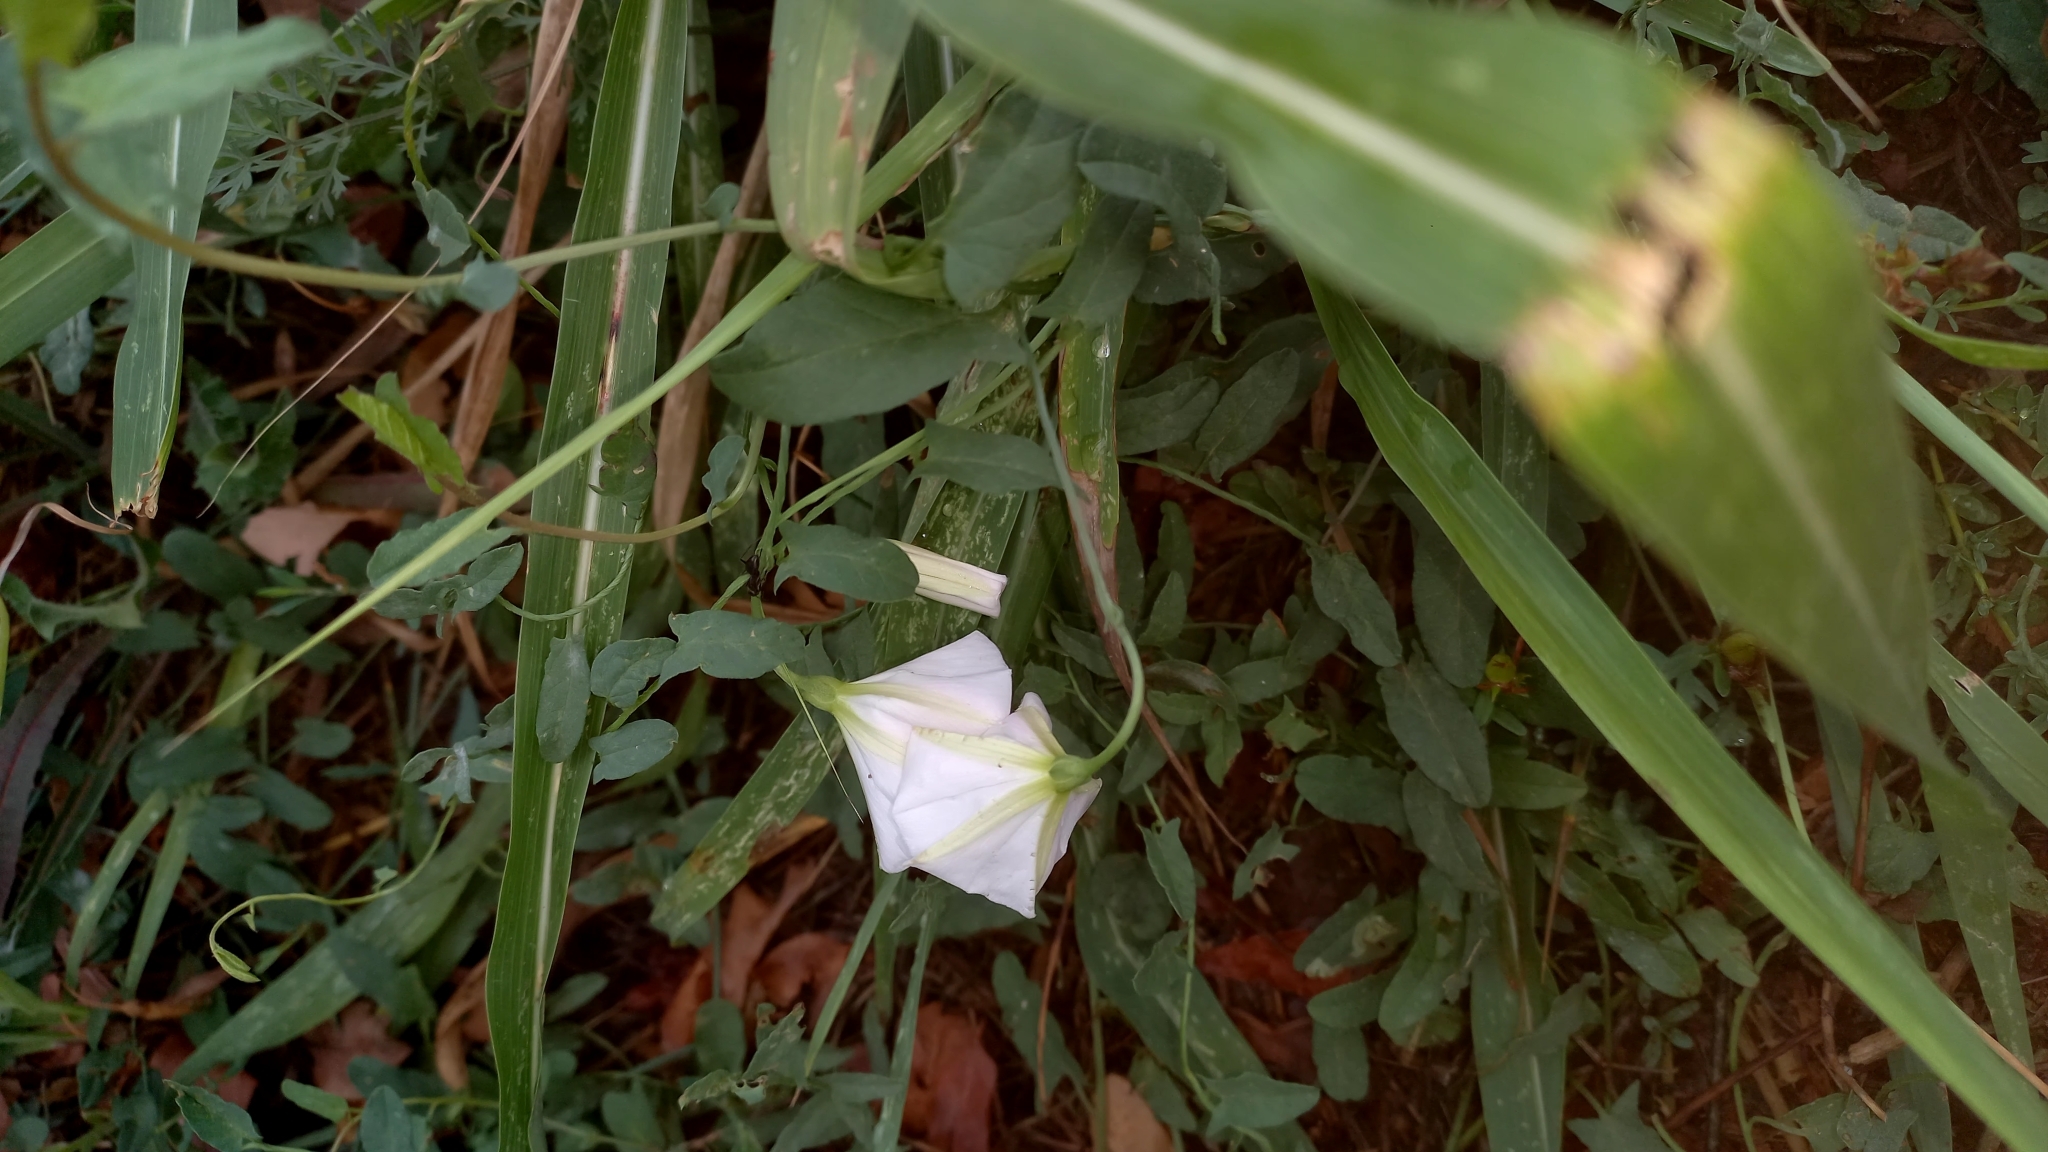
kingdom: Plantae
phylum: Tracheophyta
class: Magnoliopsida
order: Solanales
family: Convolvulaceae
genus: Convolvulus
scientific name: Convolvulus arvensis
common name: Field bindweed
